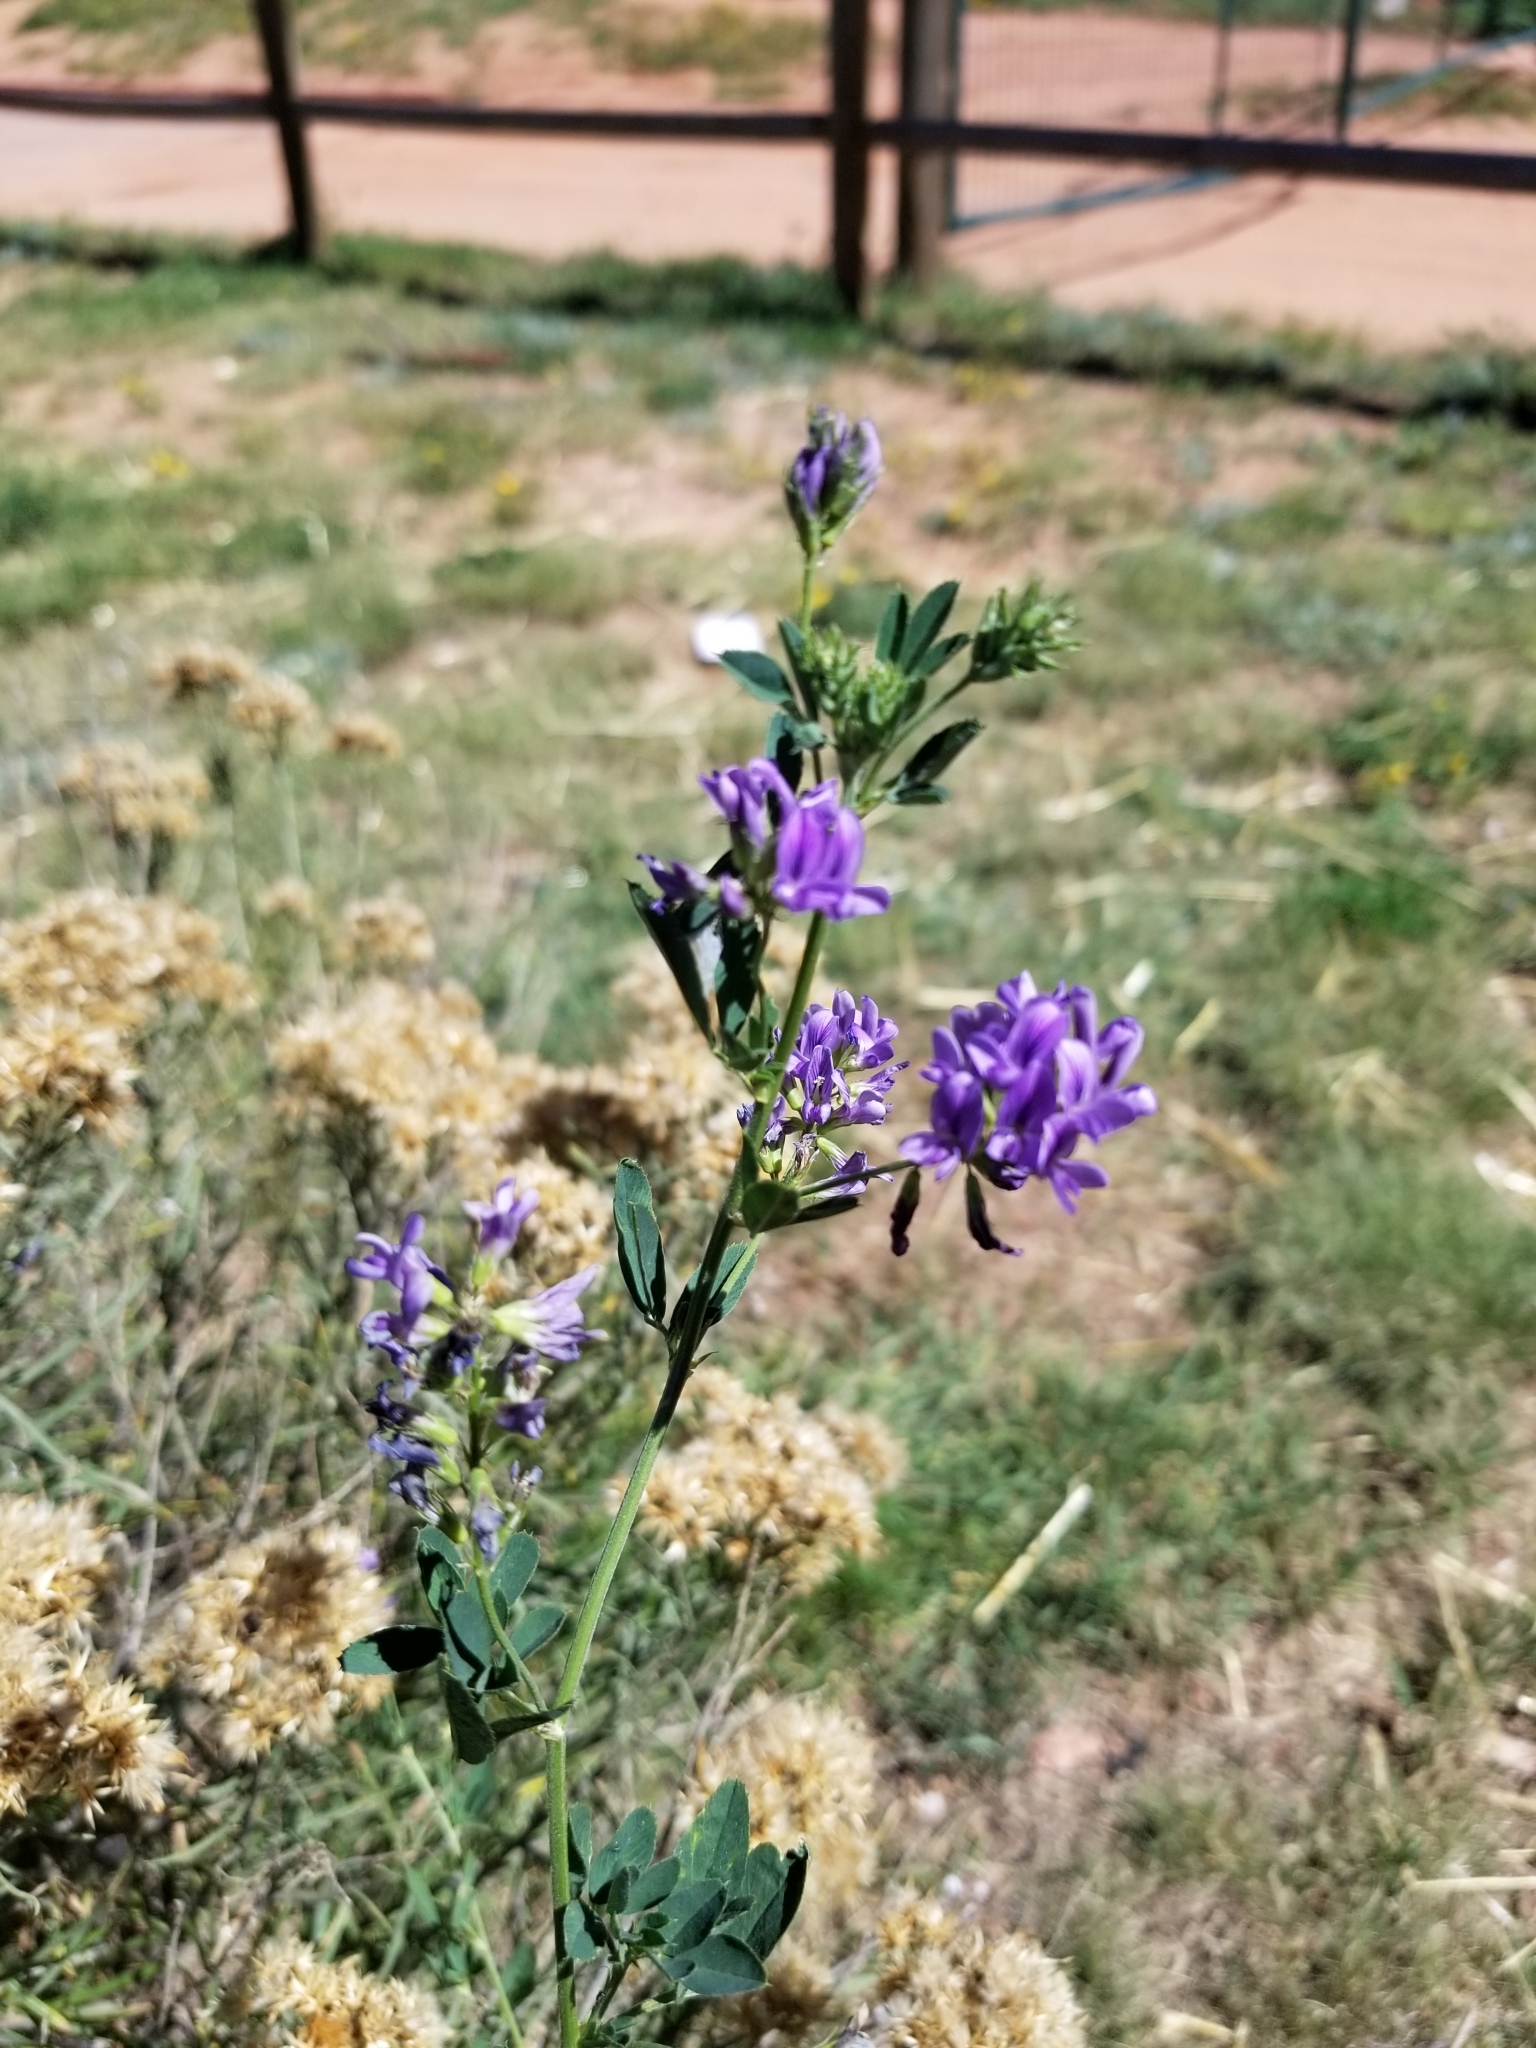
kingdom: Plantae
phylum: Tracheophyta
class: Magnoliopsida
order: Fabales
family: Fabaceae
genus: Medicago
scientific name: Medicago sativa
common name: Alfalfa
